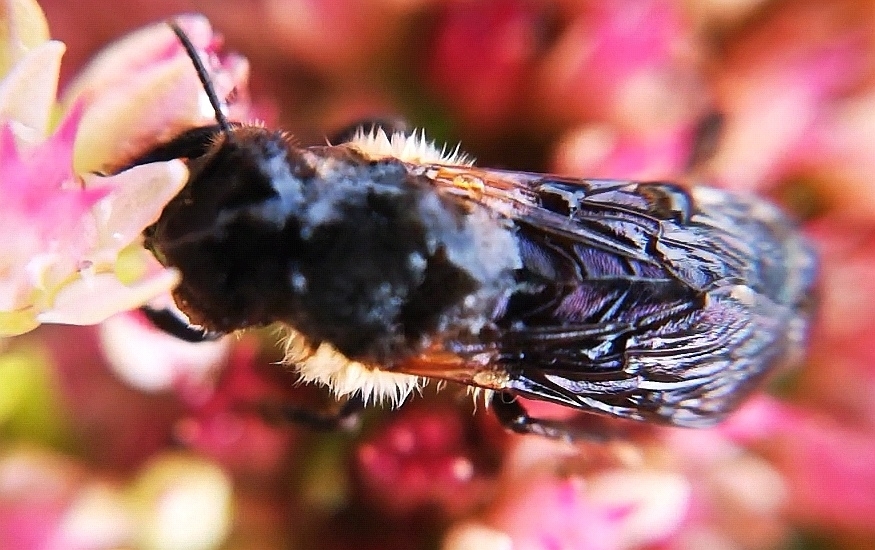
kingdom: Animalia
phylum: Arthropoda
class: Insecta
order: Hymenoptera
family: Apidae
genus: Apis
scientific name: Apis mellifera
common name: Honey bee
